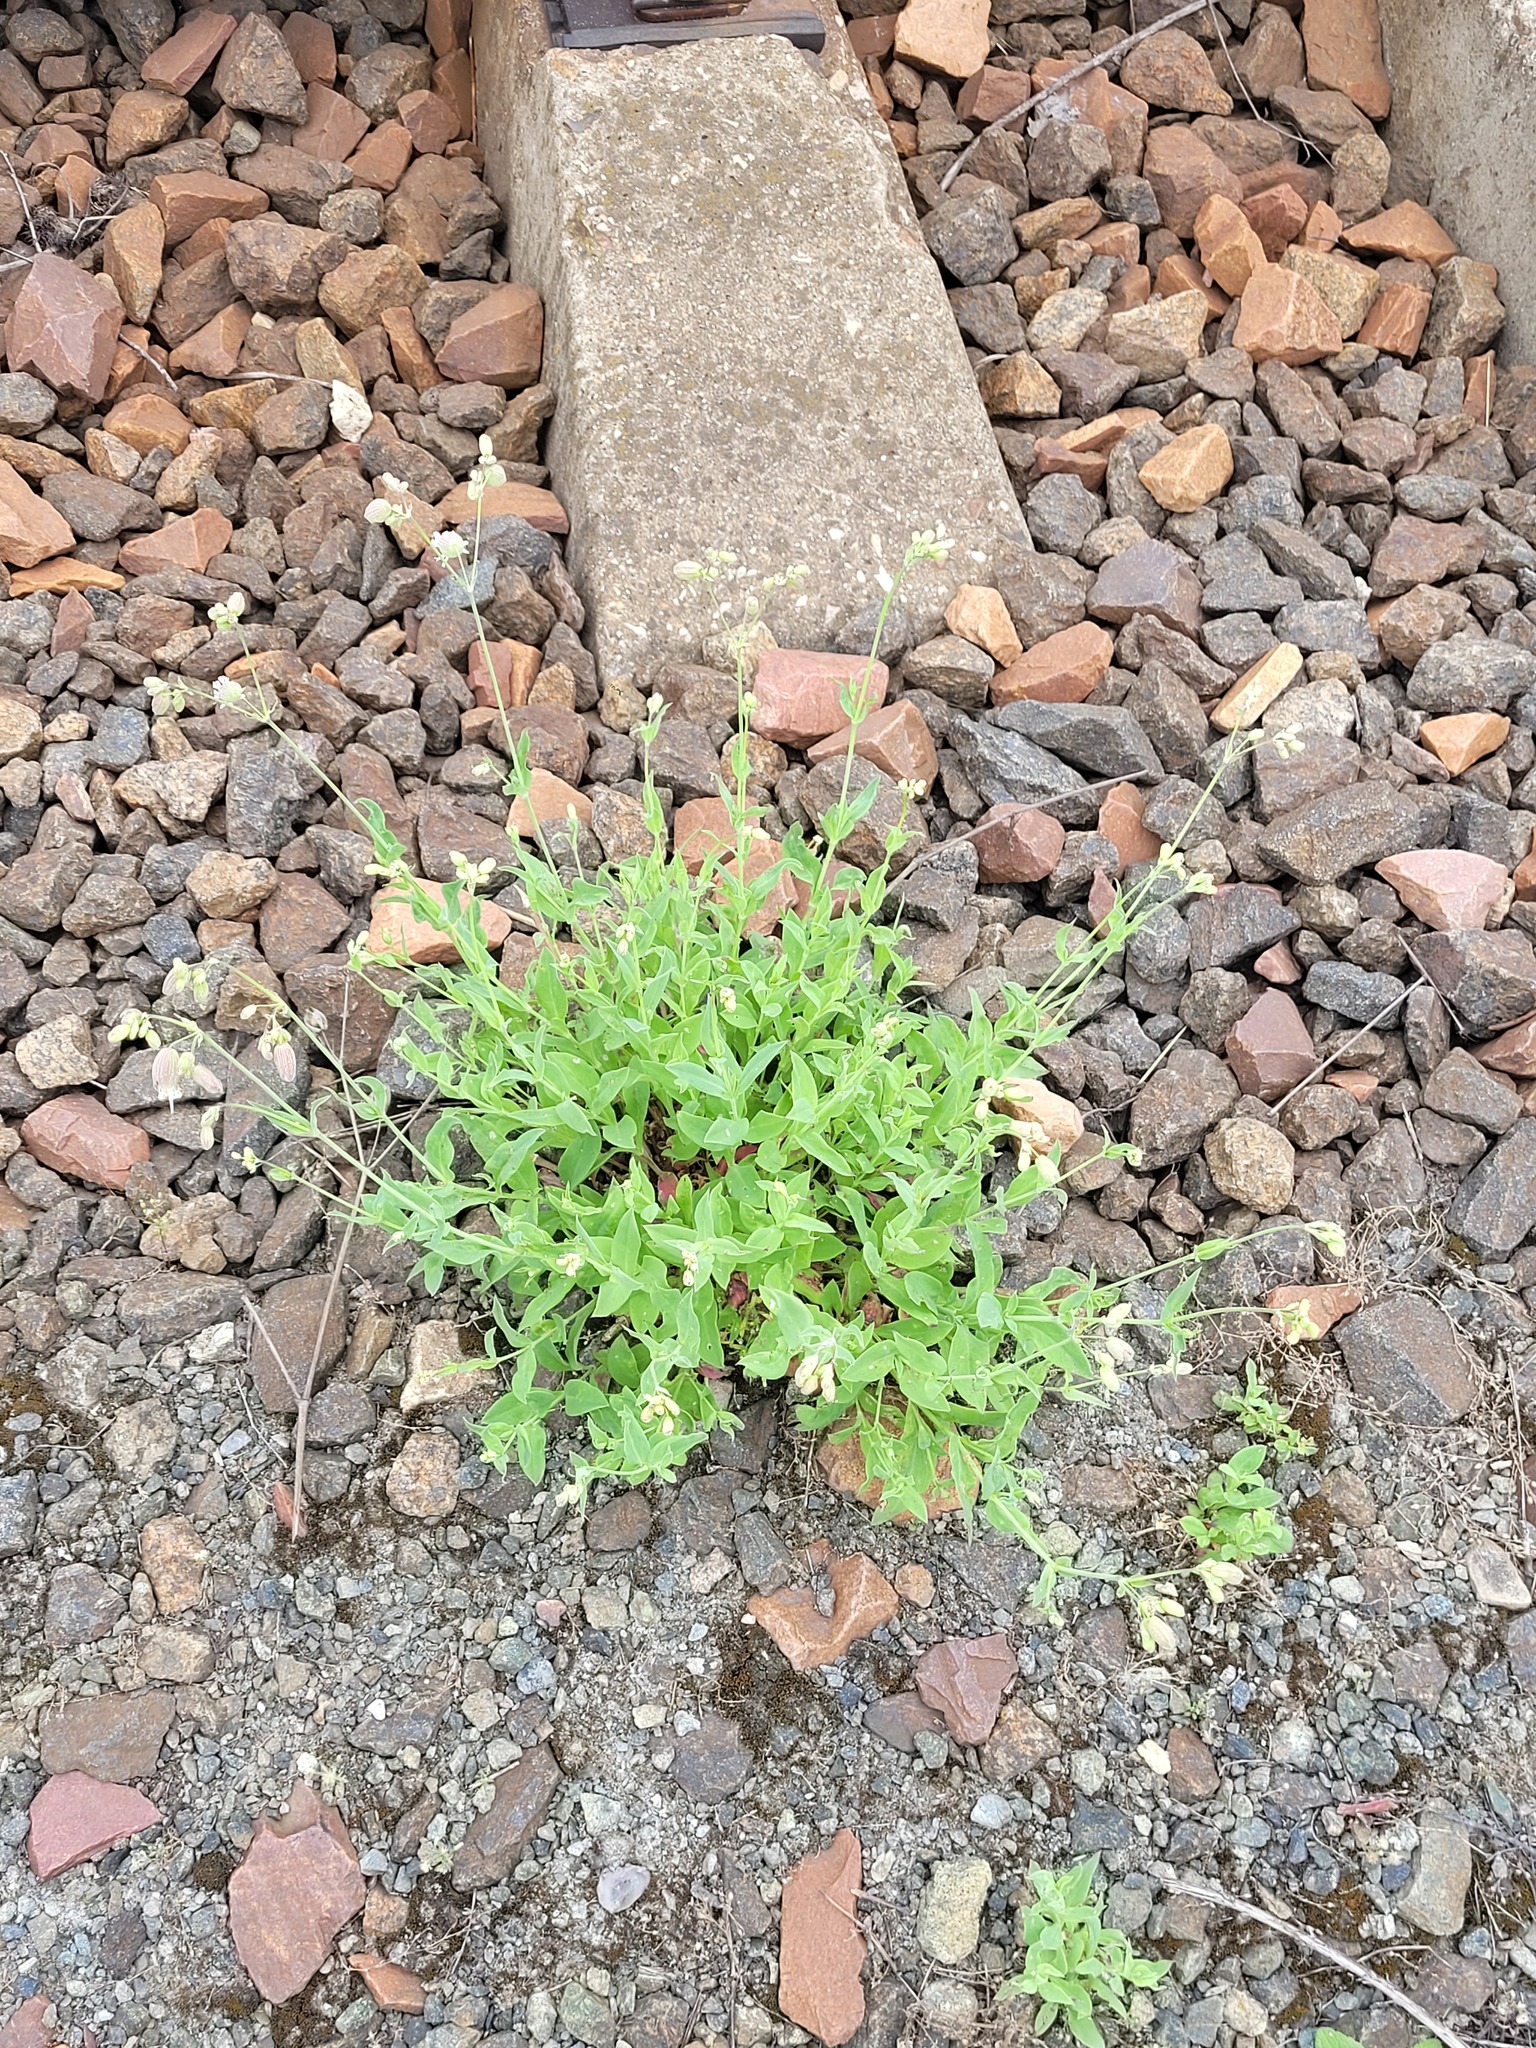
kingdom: Plantae
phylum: Tracheophyta
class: Magnoliopsida
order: Caryophyllales
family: Caryophyllaceae
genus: Silene
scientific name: Silene vulgaris
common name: Bladder campion
